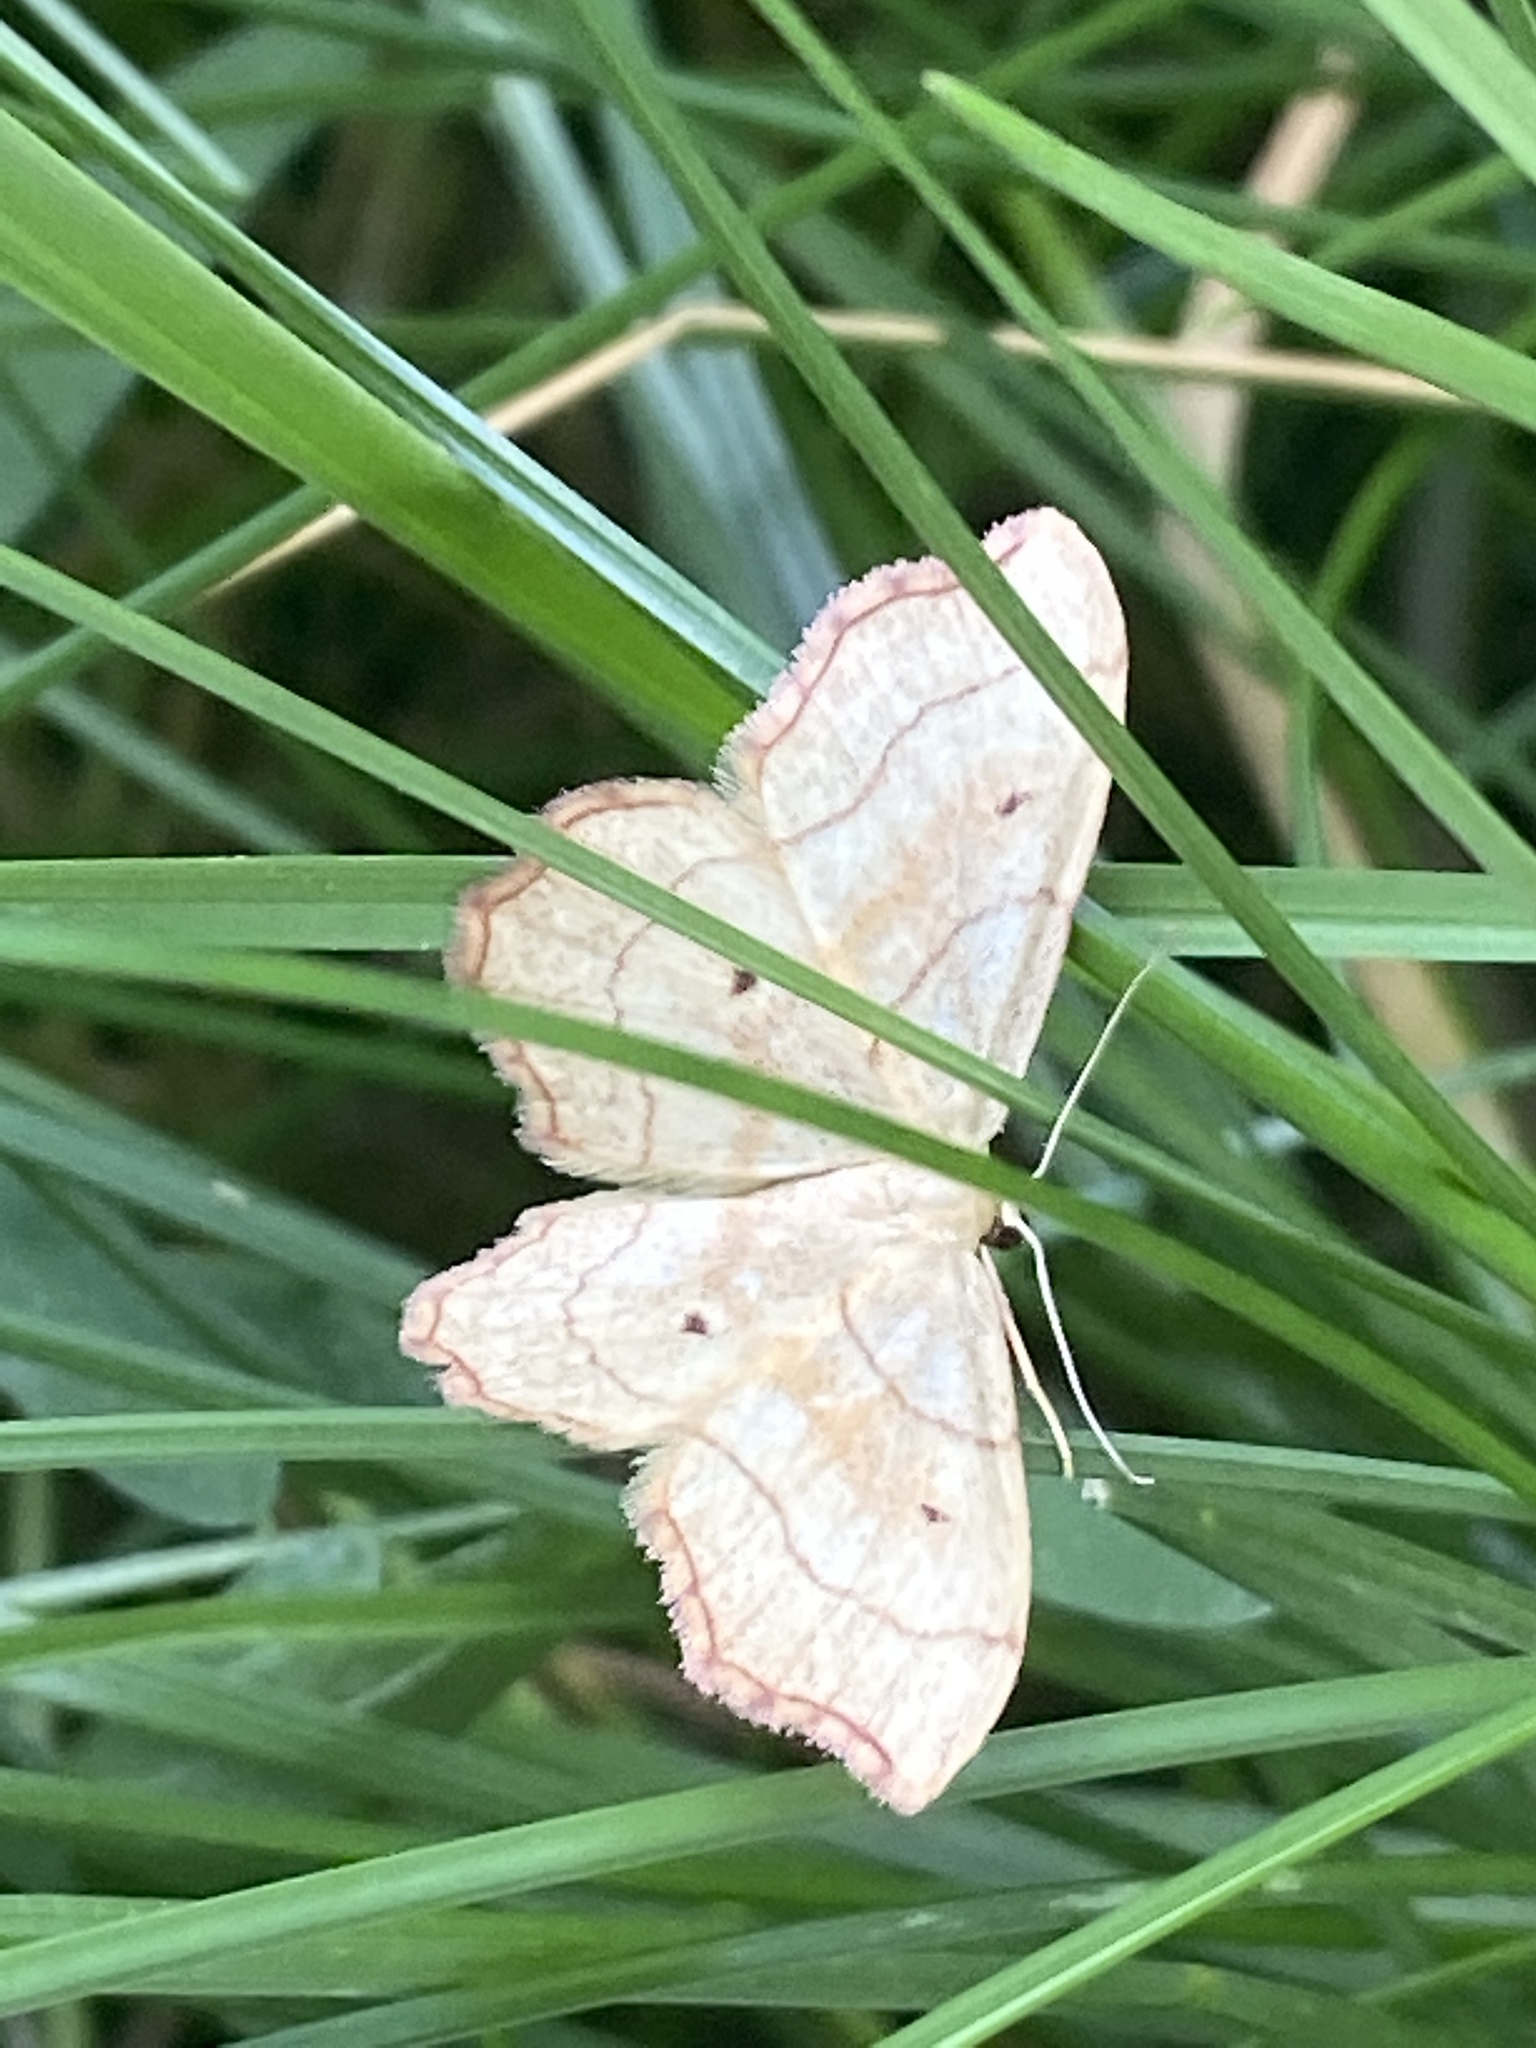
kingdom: Animalia
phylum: Arthropoda
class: Insecta
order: Lepidoptera
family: Geometridae
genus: Idaea
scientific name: Idaea emarginata
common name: Small scallop
